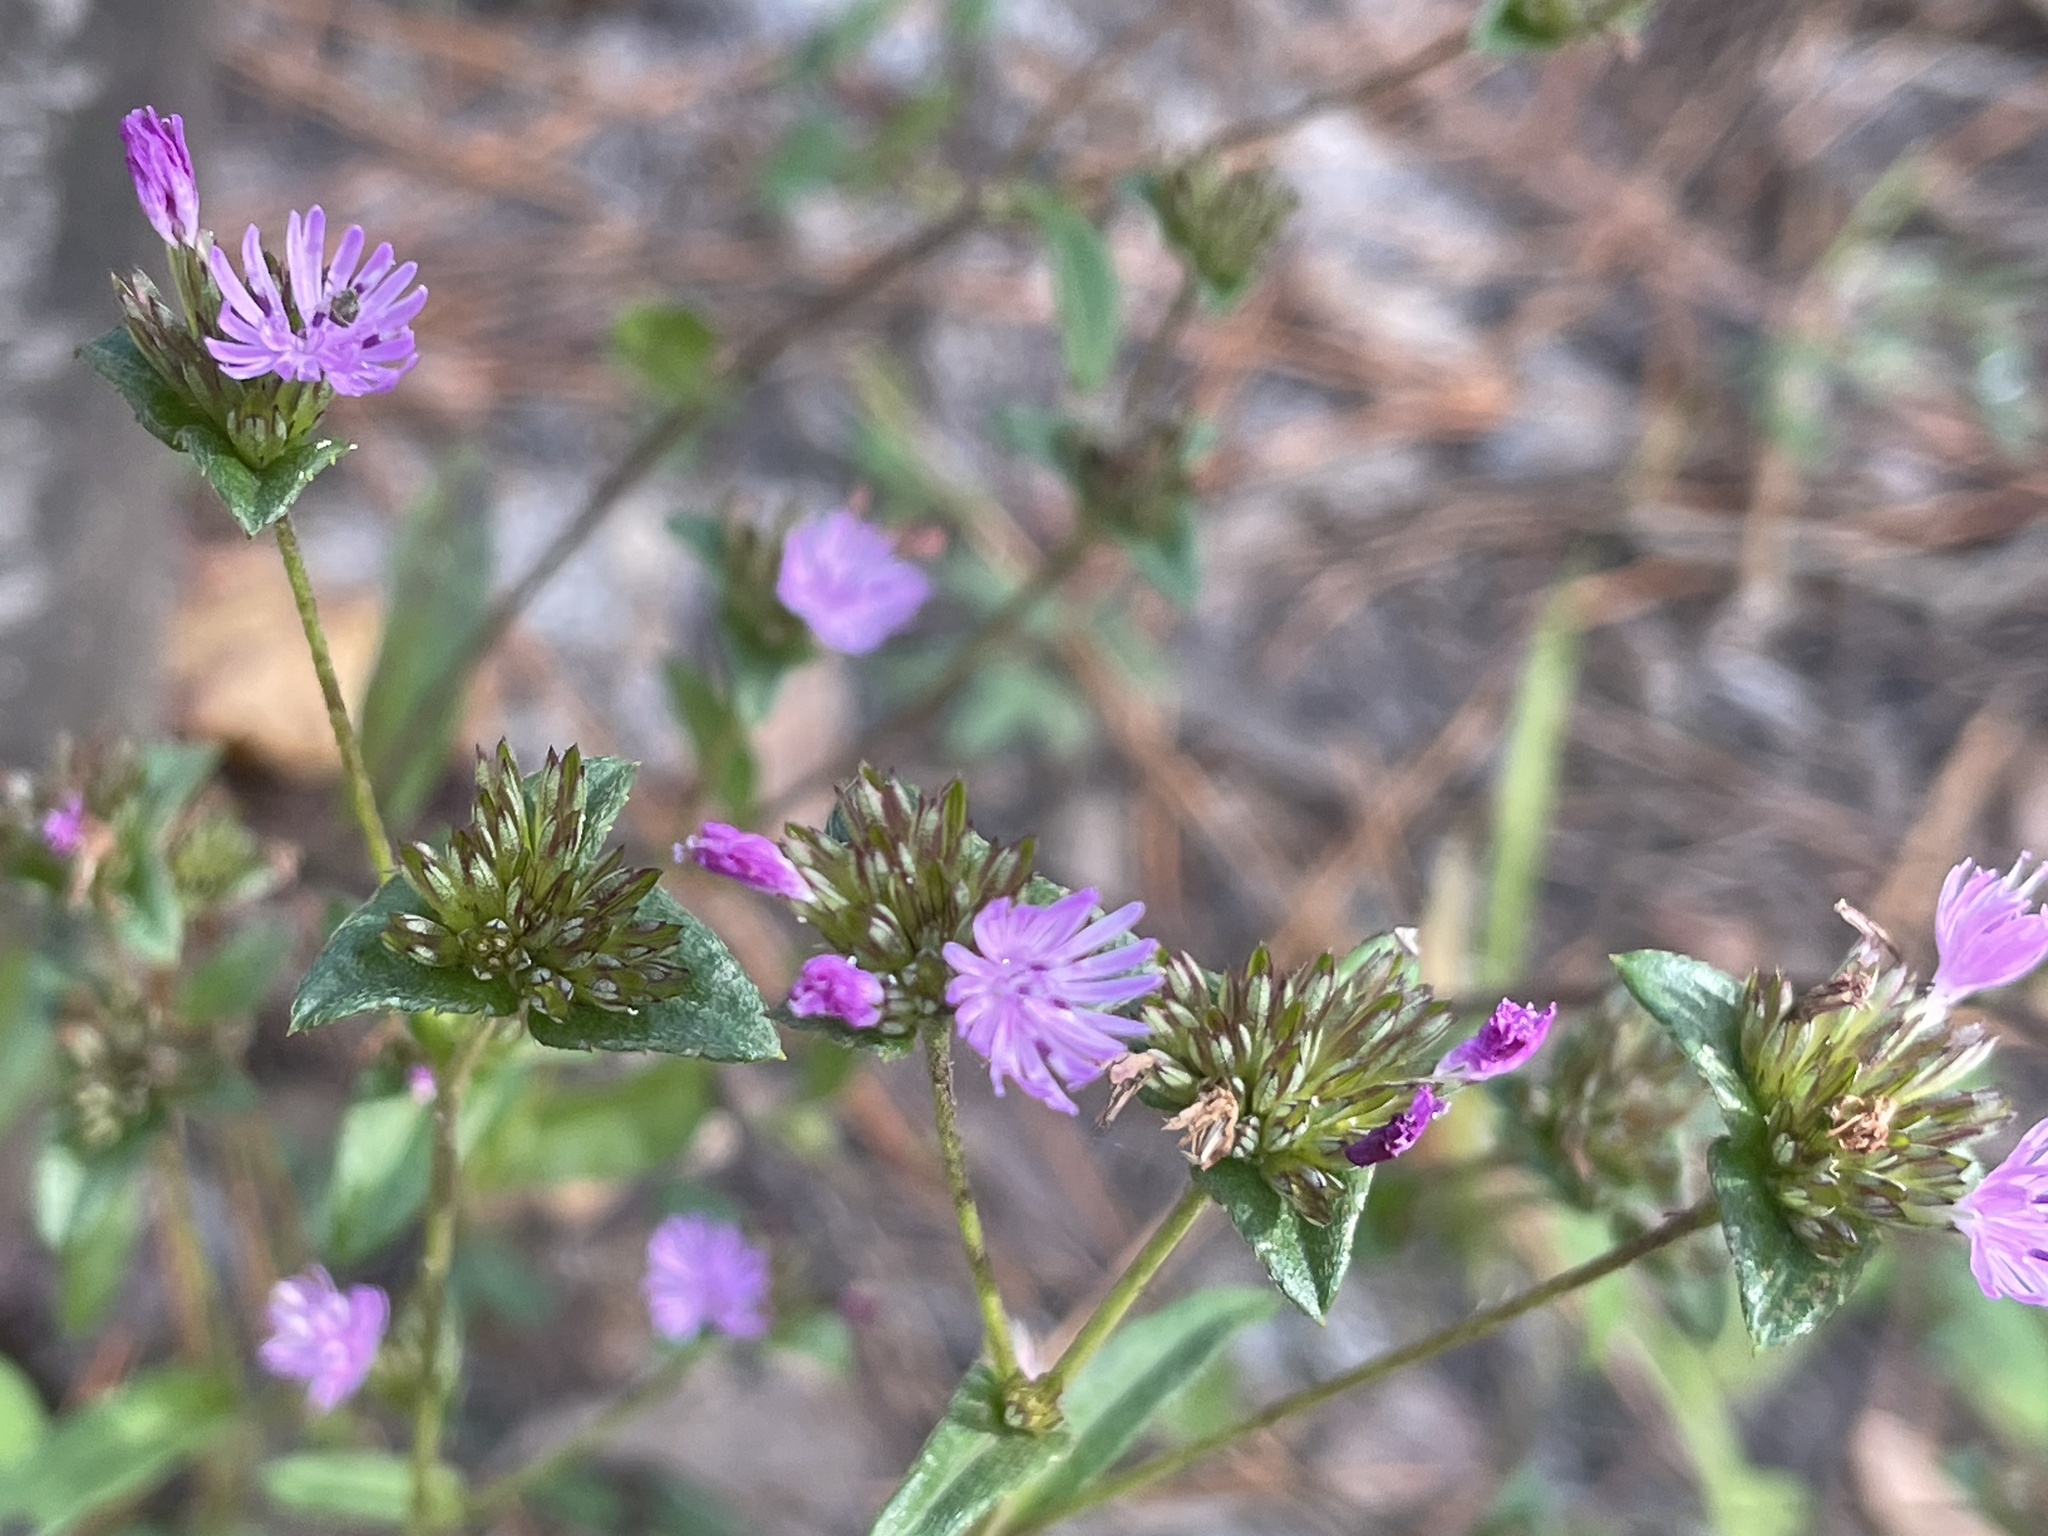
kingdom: Plantae
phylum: Tracheophyta
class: Magnoliopsida
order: Asterales
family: Asteraceae
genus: Elephantopus
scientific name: Elephantopus nudatus
